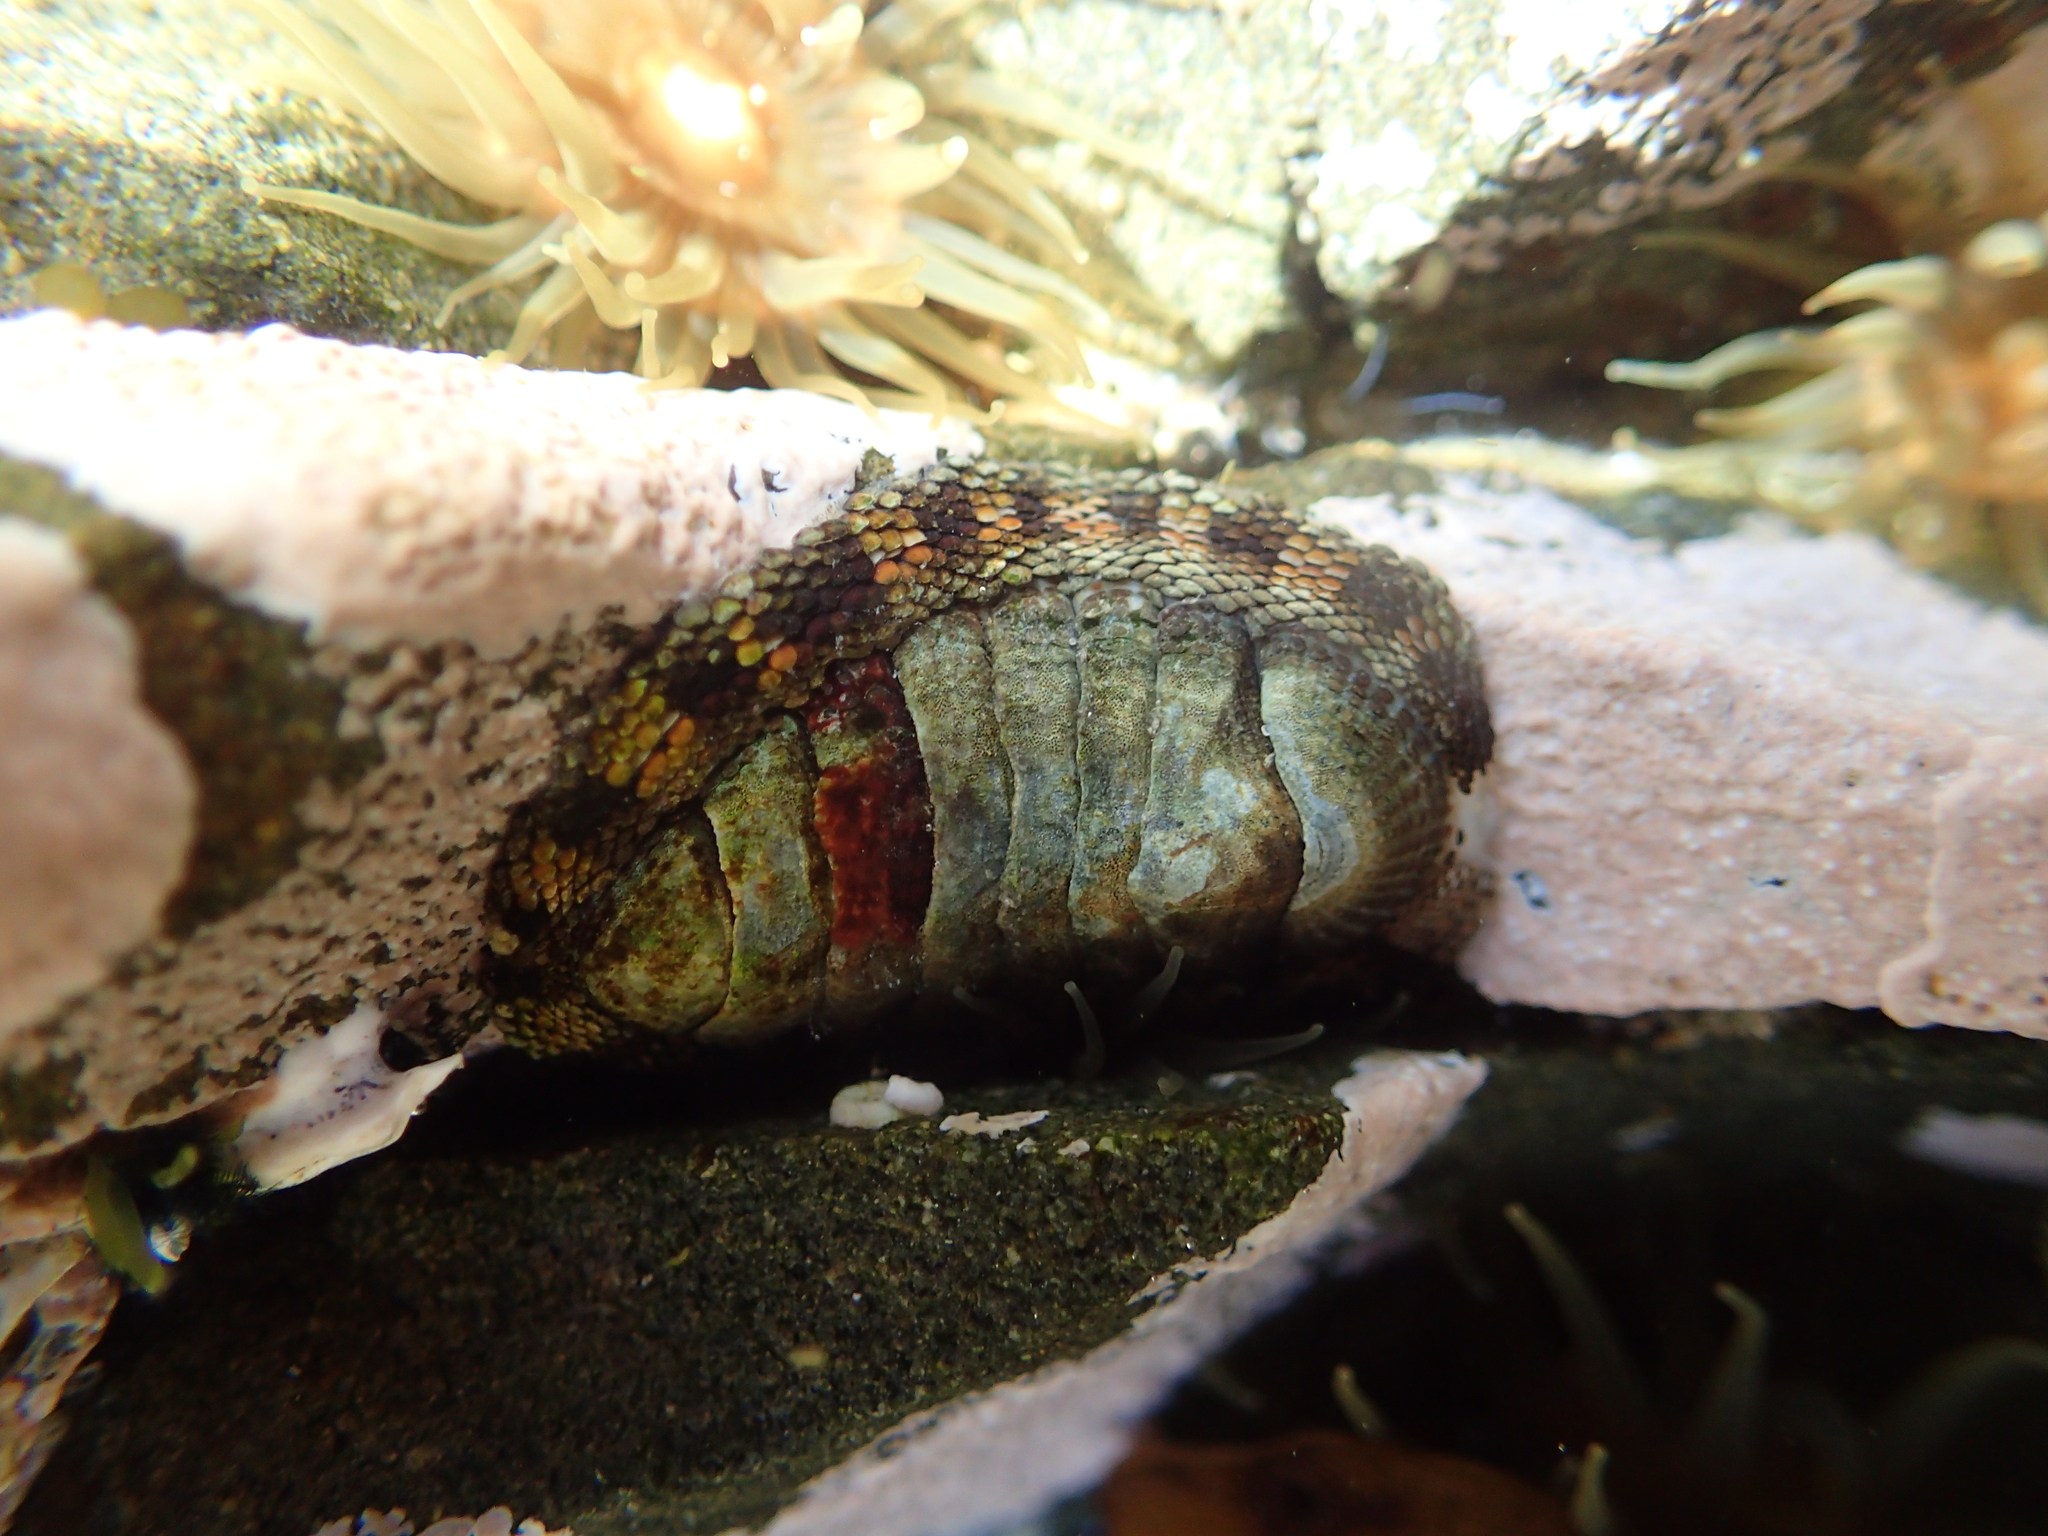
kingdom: Animalia
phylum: Mollusca
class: Polyplacophora
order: Chitonida
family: Chitonidae
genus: Sypharochiton
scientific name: Sypharochiton pelliserpentis
